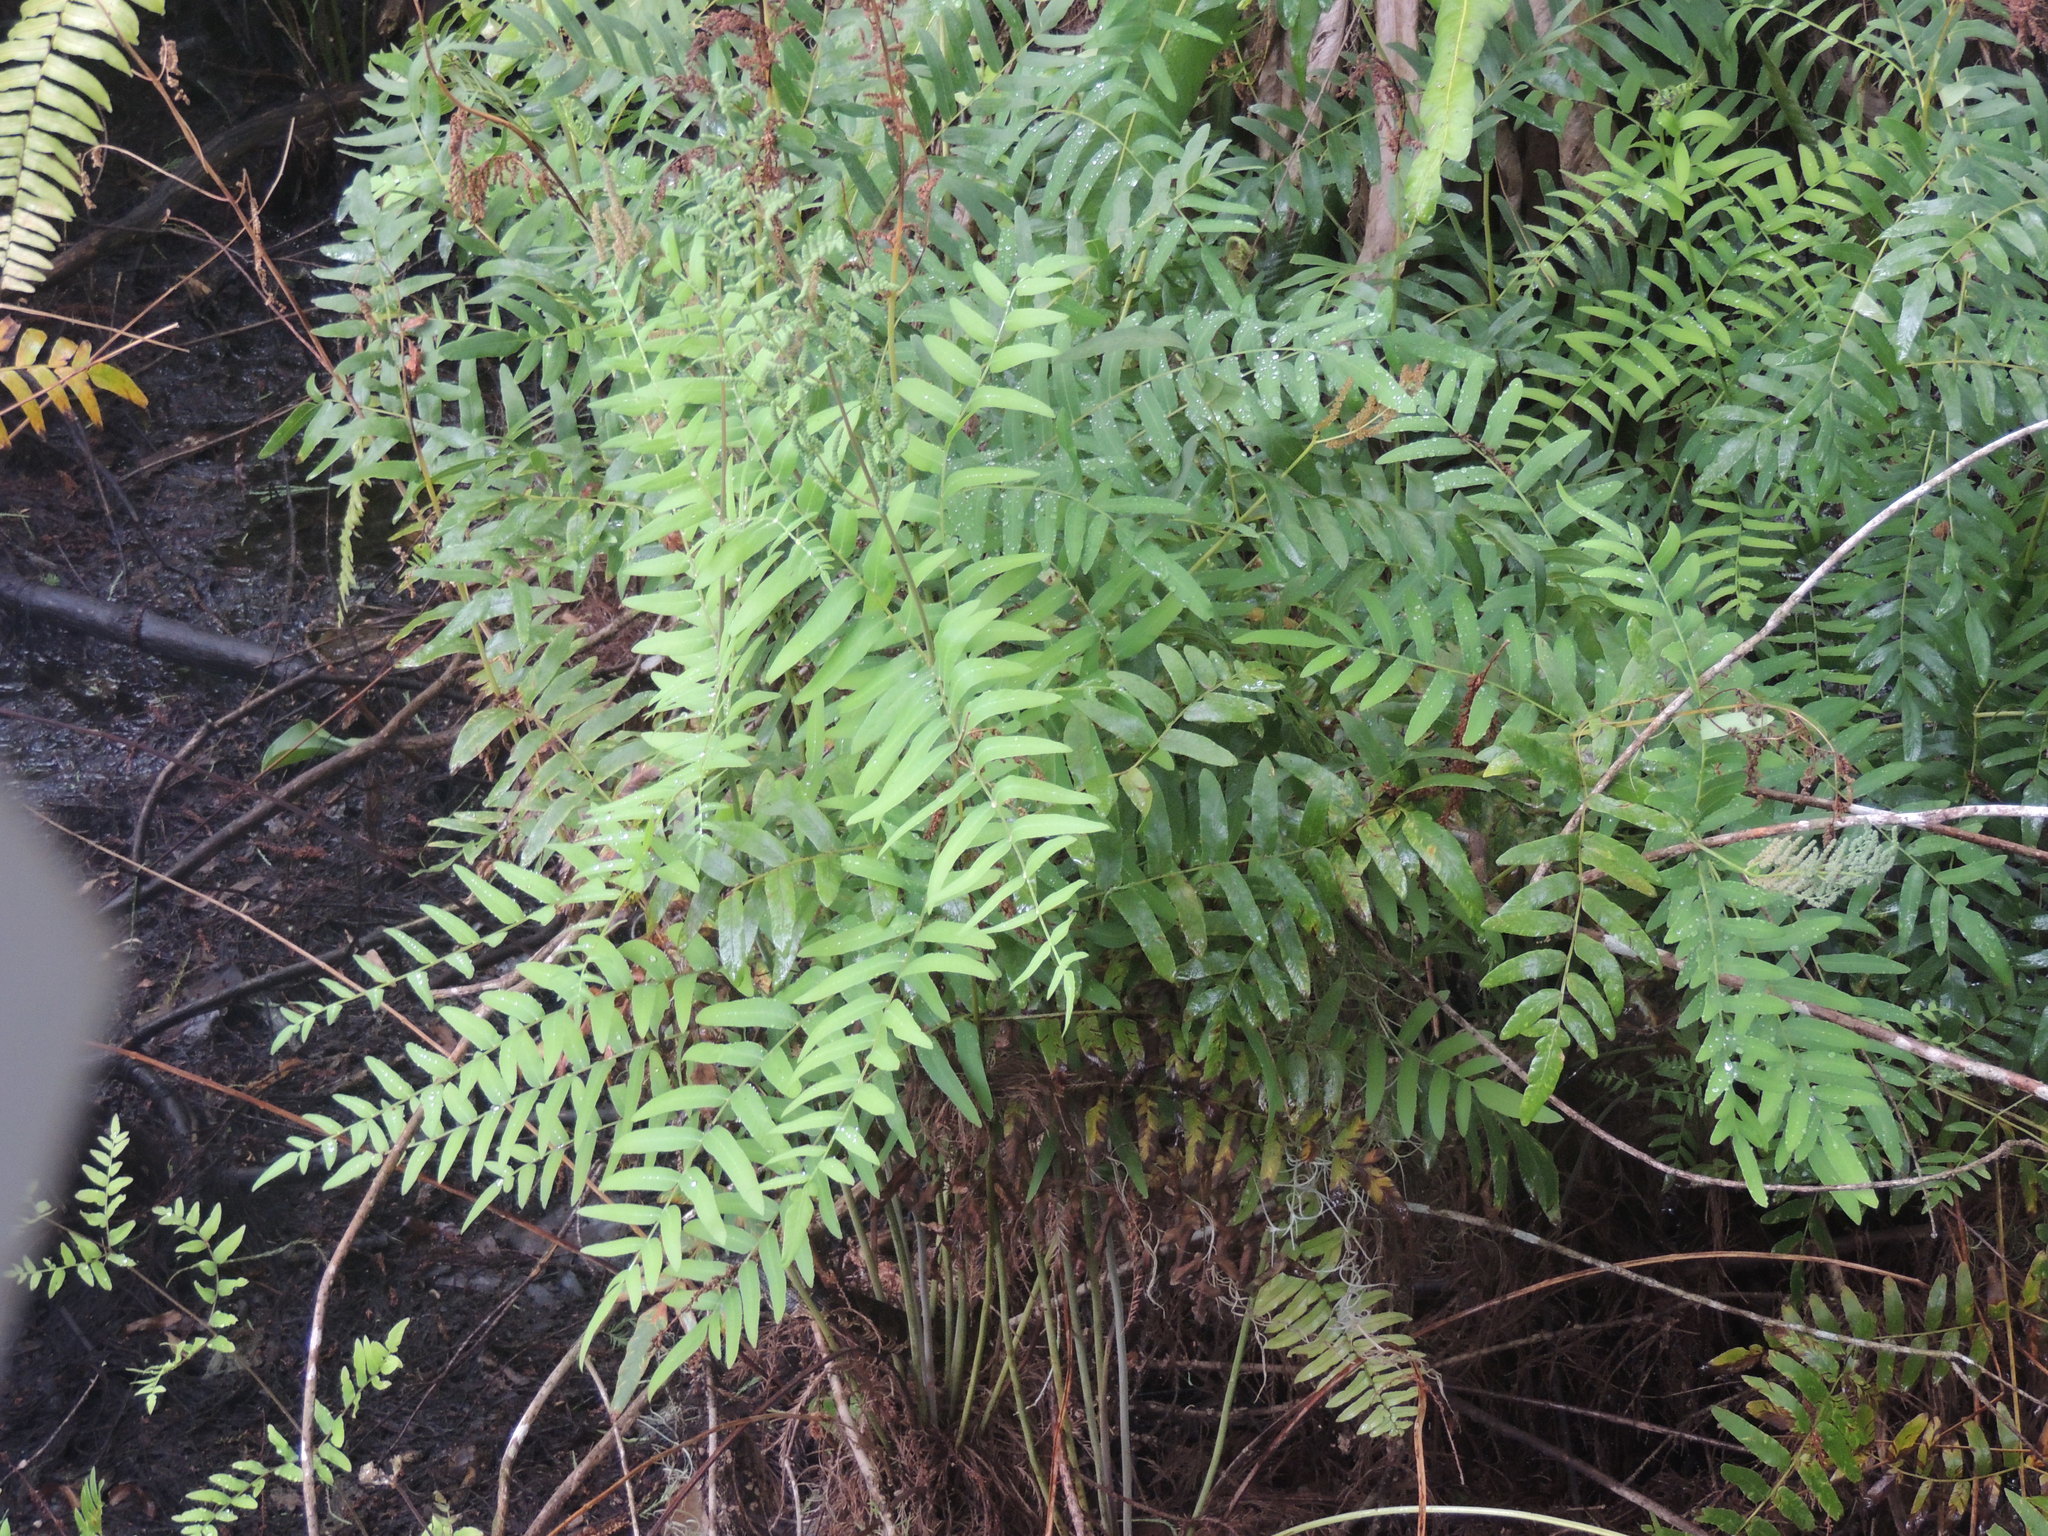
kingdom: Plantae
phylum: Tracheophyta
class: Polypodiopsida
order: Osmundales
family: Osmundaceae
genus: Osmunda
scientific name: Osmunda spectabilis
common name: American royal fern
